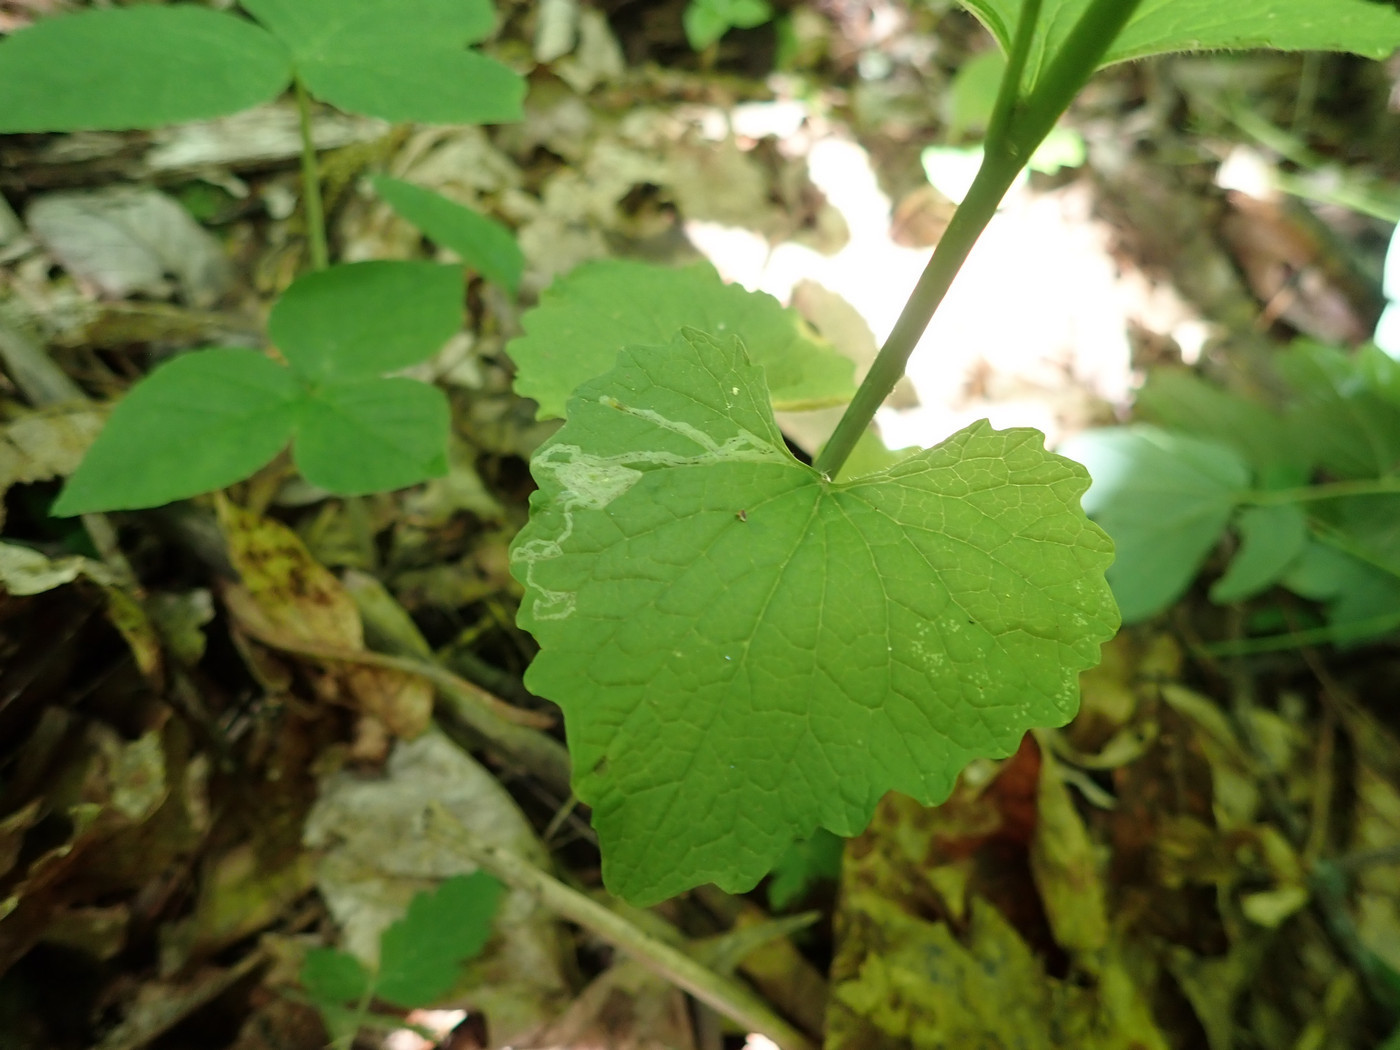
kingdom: Animalia
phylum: Arthropoda
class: Insecta
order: Diptera
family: Agromyzidae
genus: Liriomyza
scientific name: Liriomyza brassicae
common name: Serpentine leaf miner
